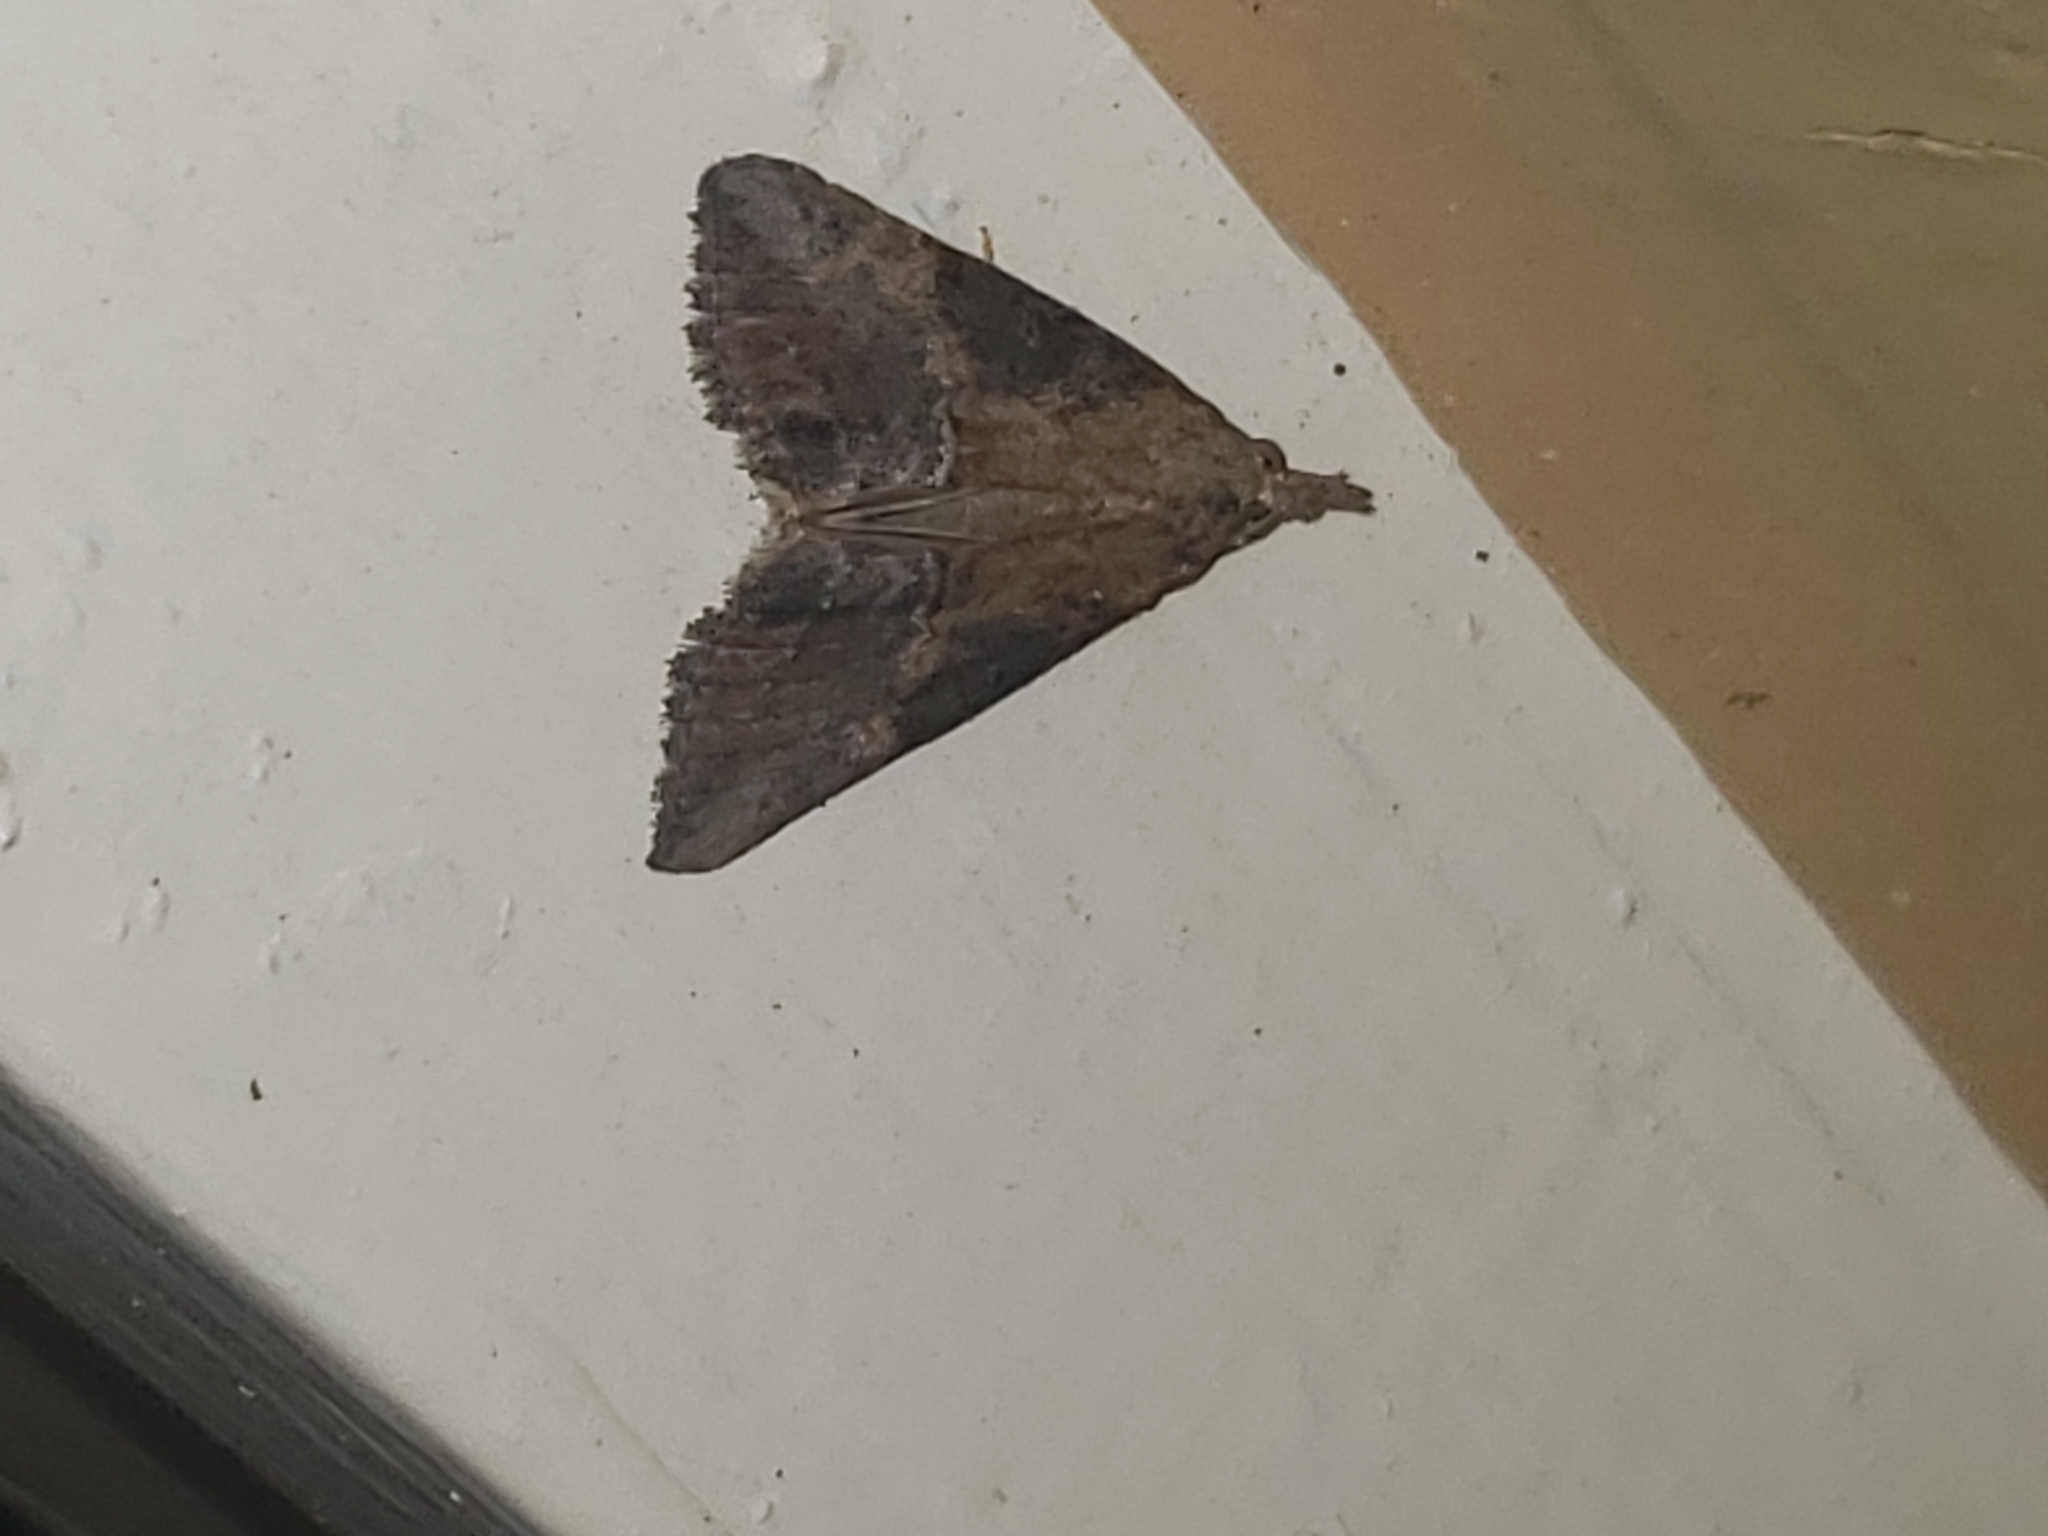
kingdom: Animalia
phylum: Arthropoda
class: Insecta
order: Lepidoptera
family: Erebidae
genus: Hypena
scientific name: Hypena scabra
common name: Green cloverworm
